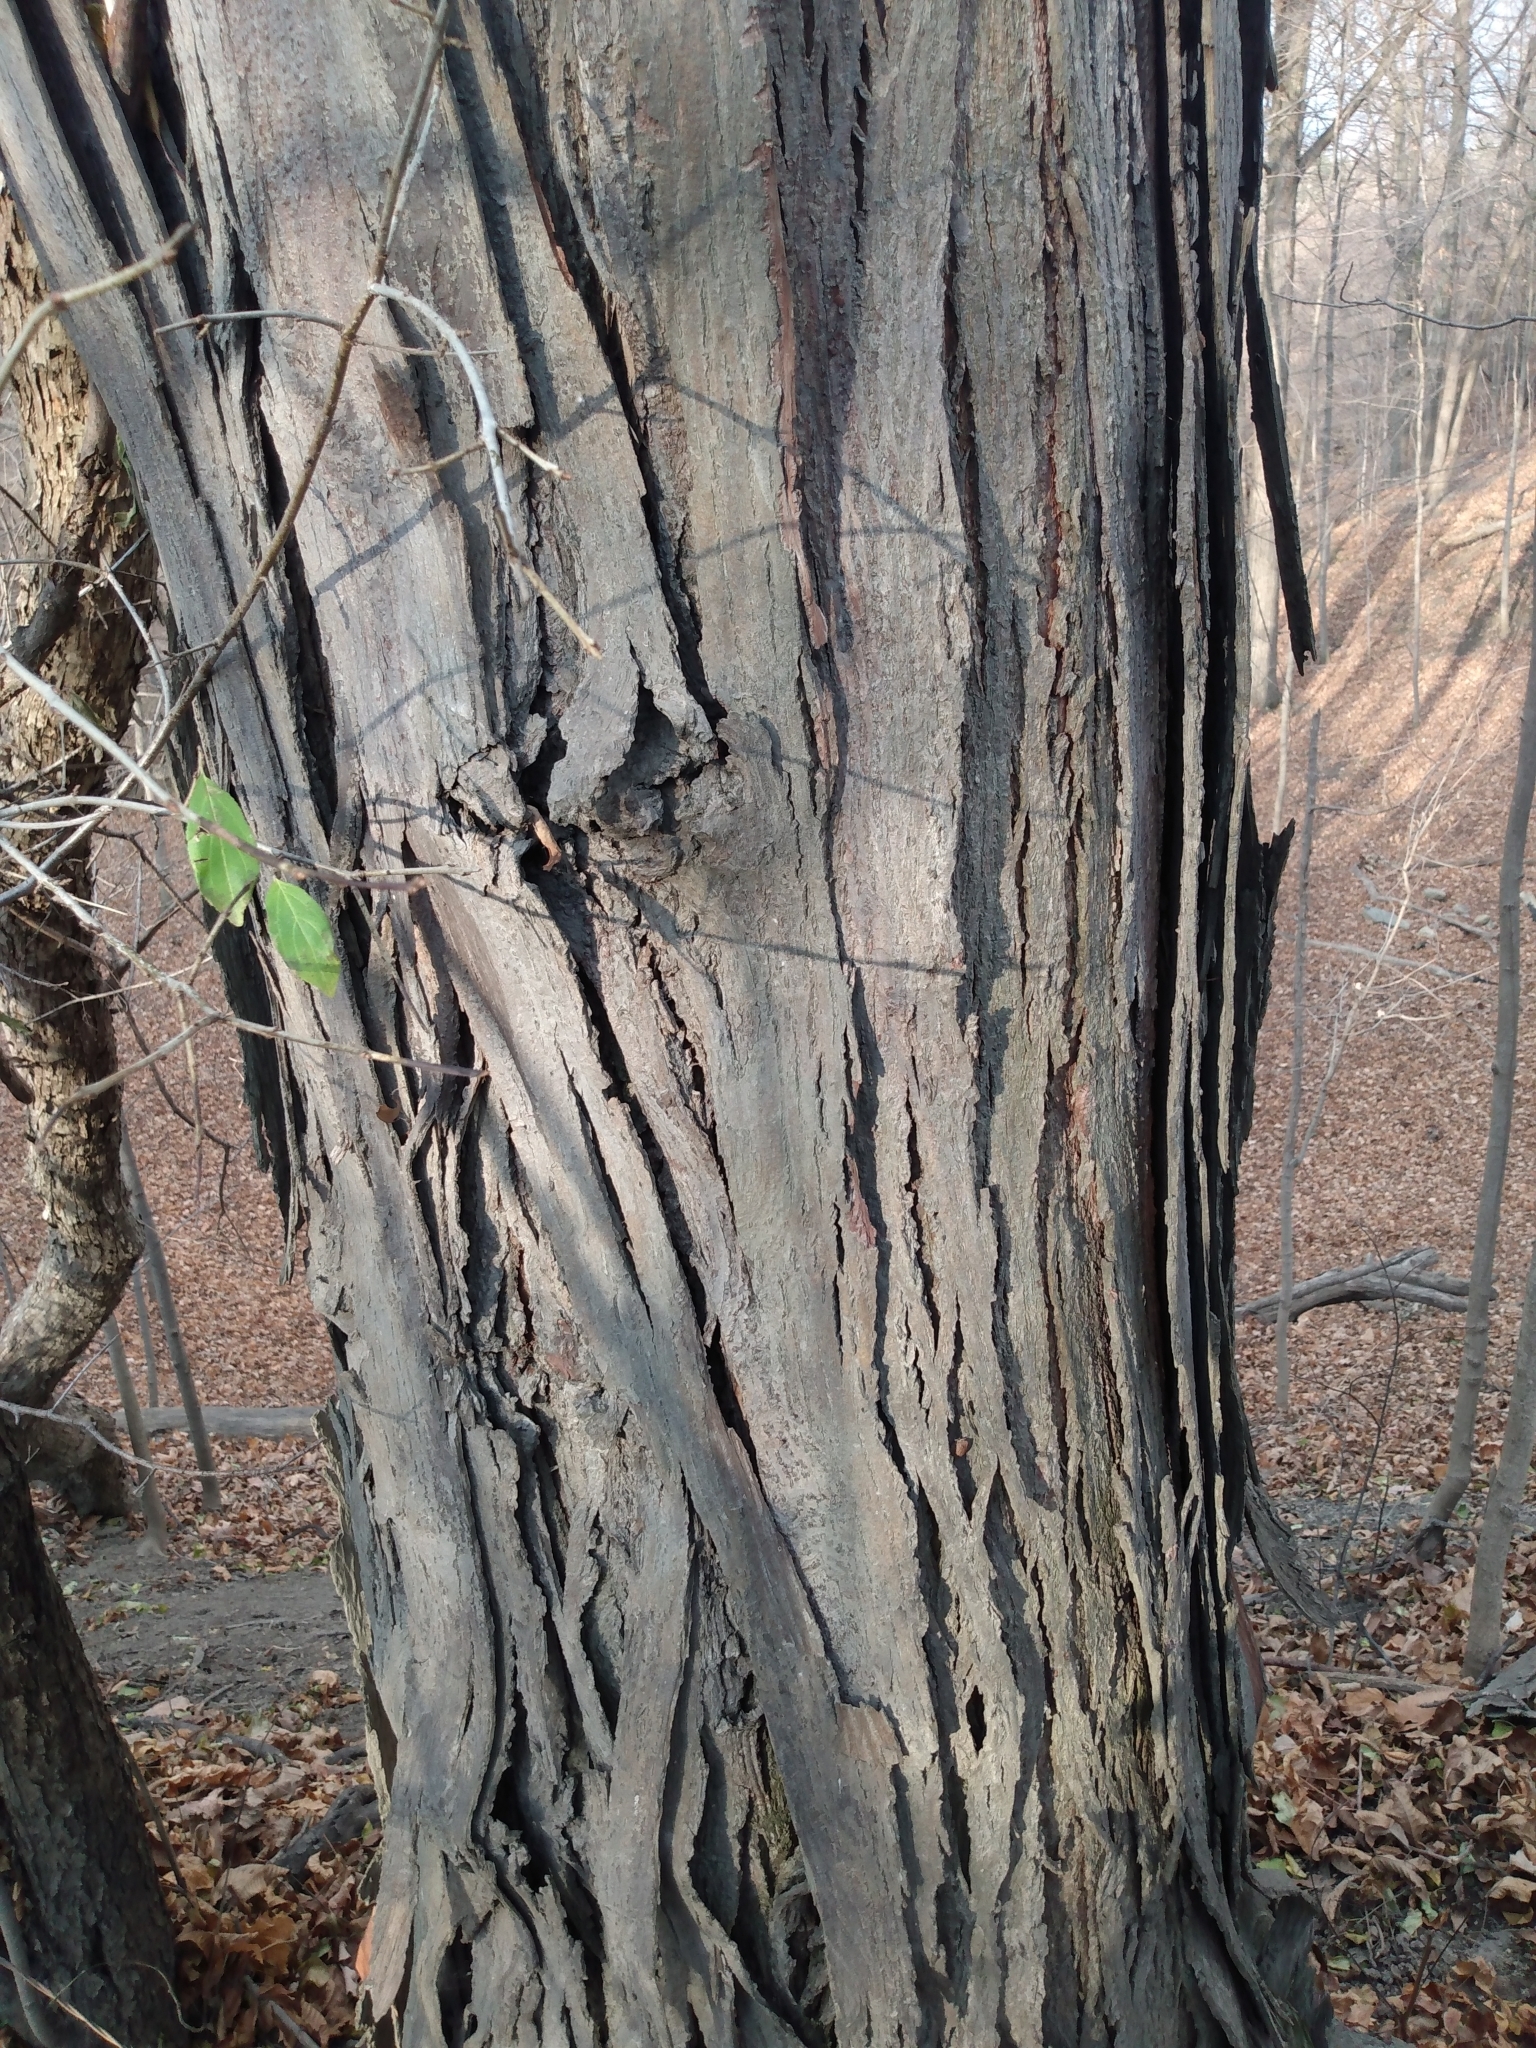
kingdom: Plantae
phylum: Tracheophyta
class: Magnoliopsida
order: Fagales
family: Juglandaceae
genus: Carya
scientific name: Carya ovata
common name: Shagbark hickory
